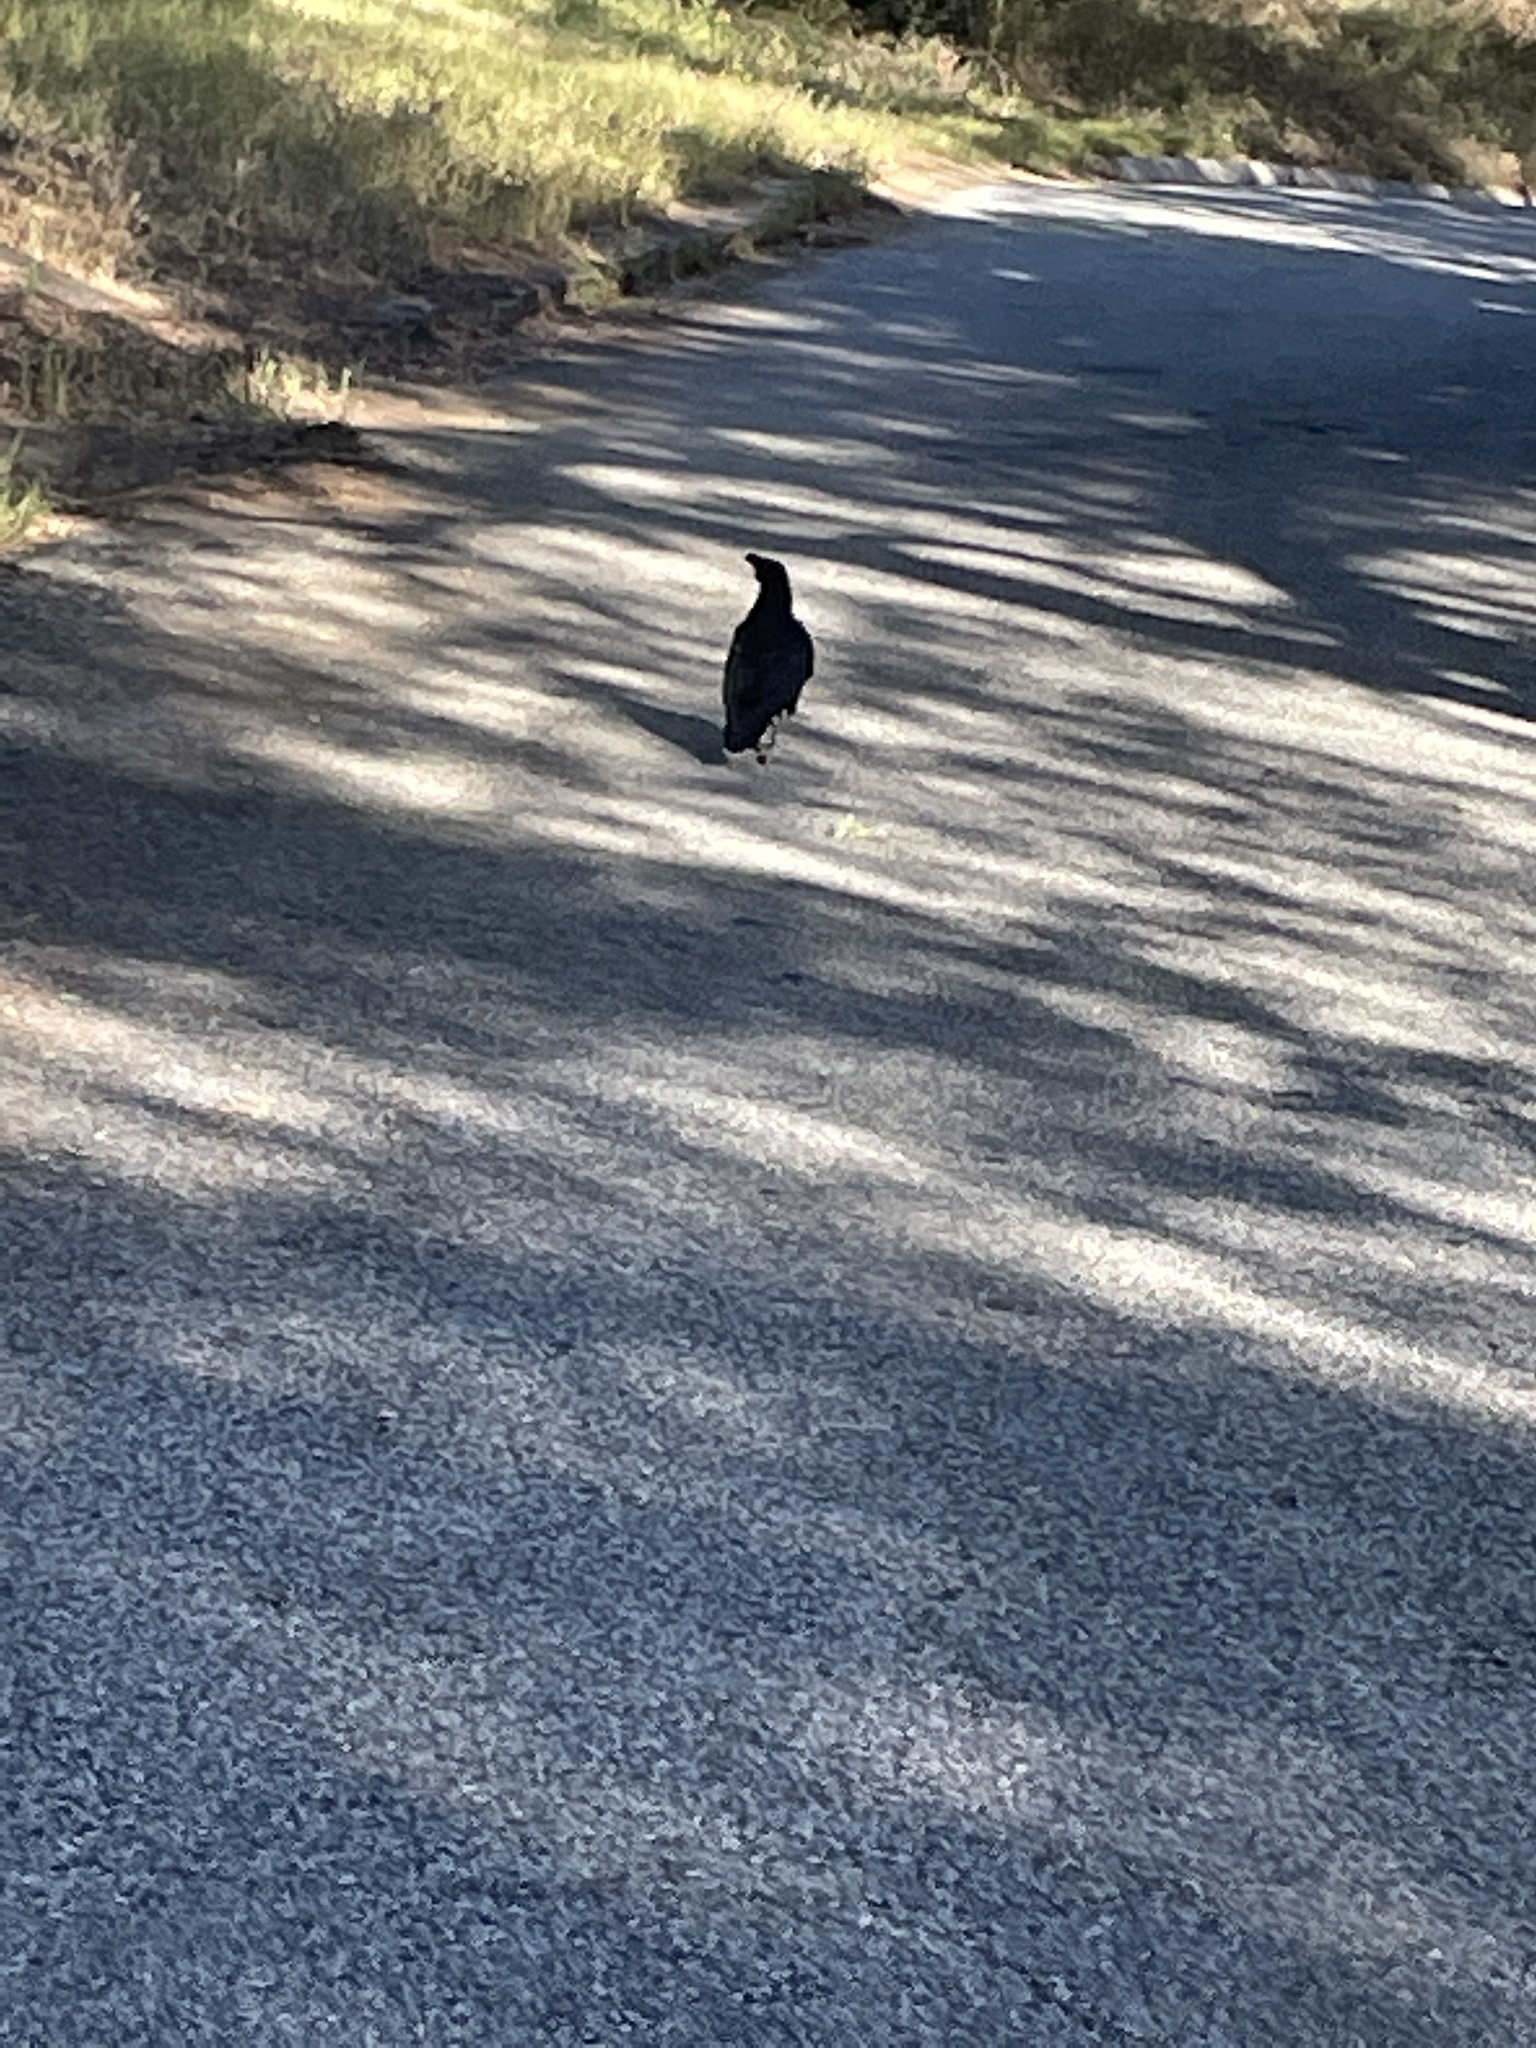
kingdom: Animalia
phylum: Chordata
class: Aves
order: Passeriformes
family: Corvidae
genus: Corvus
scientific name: Corvus corax
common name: Common raven
